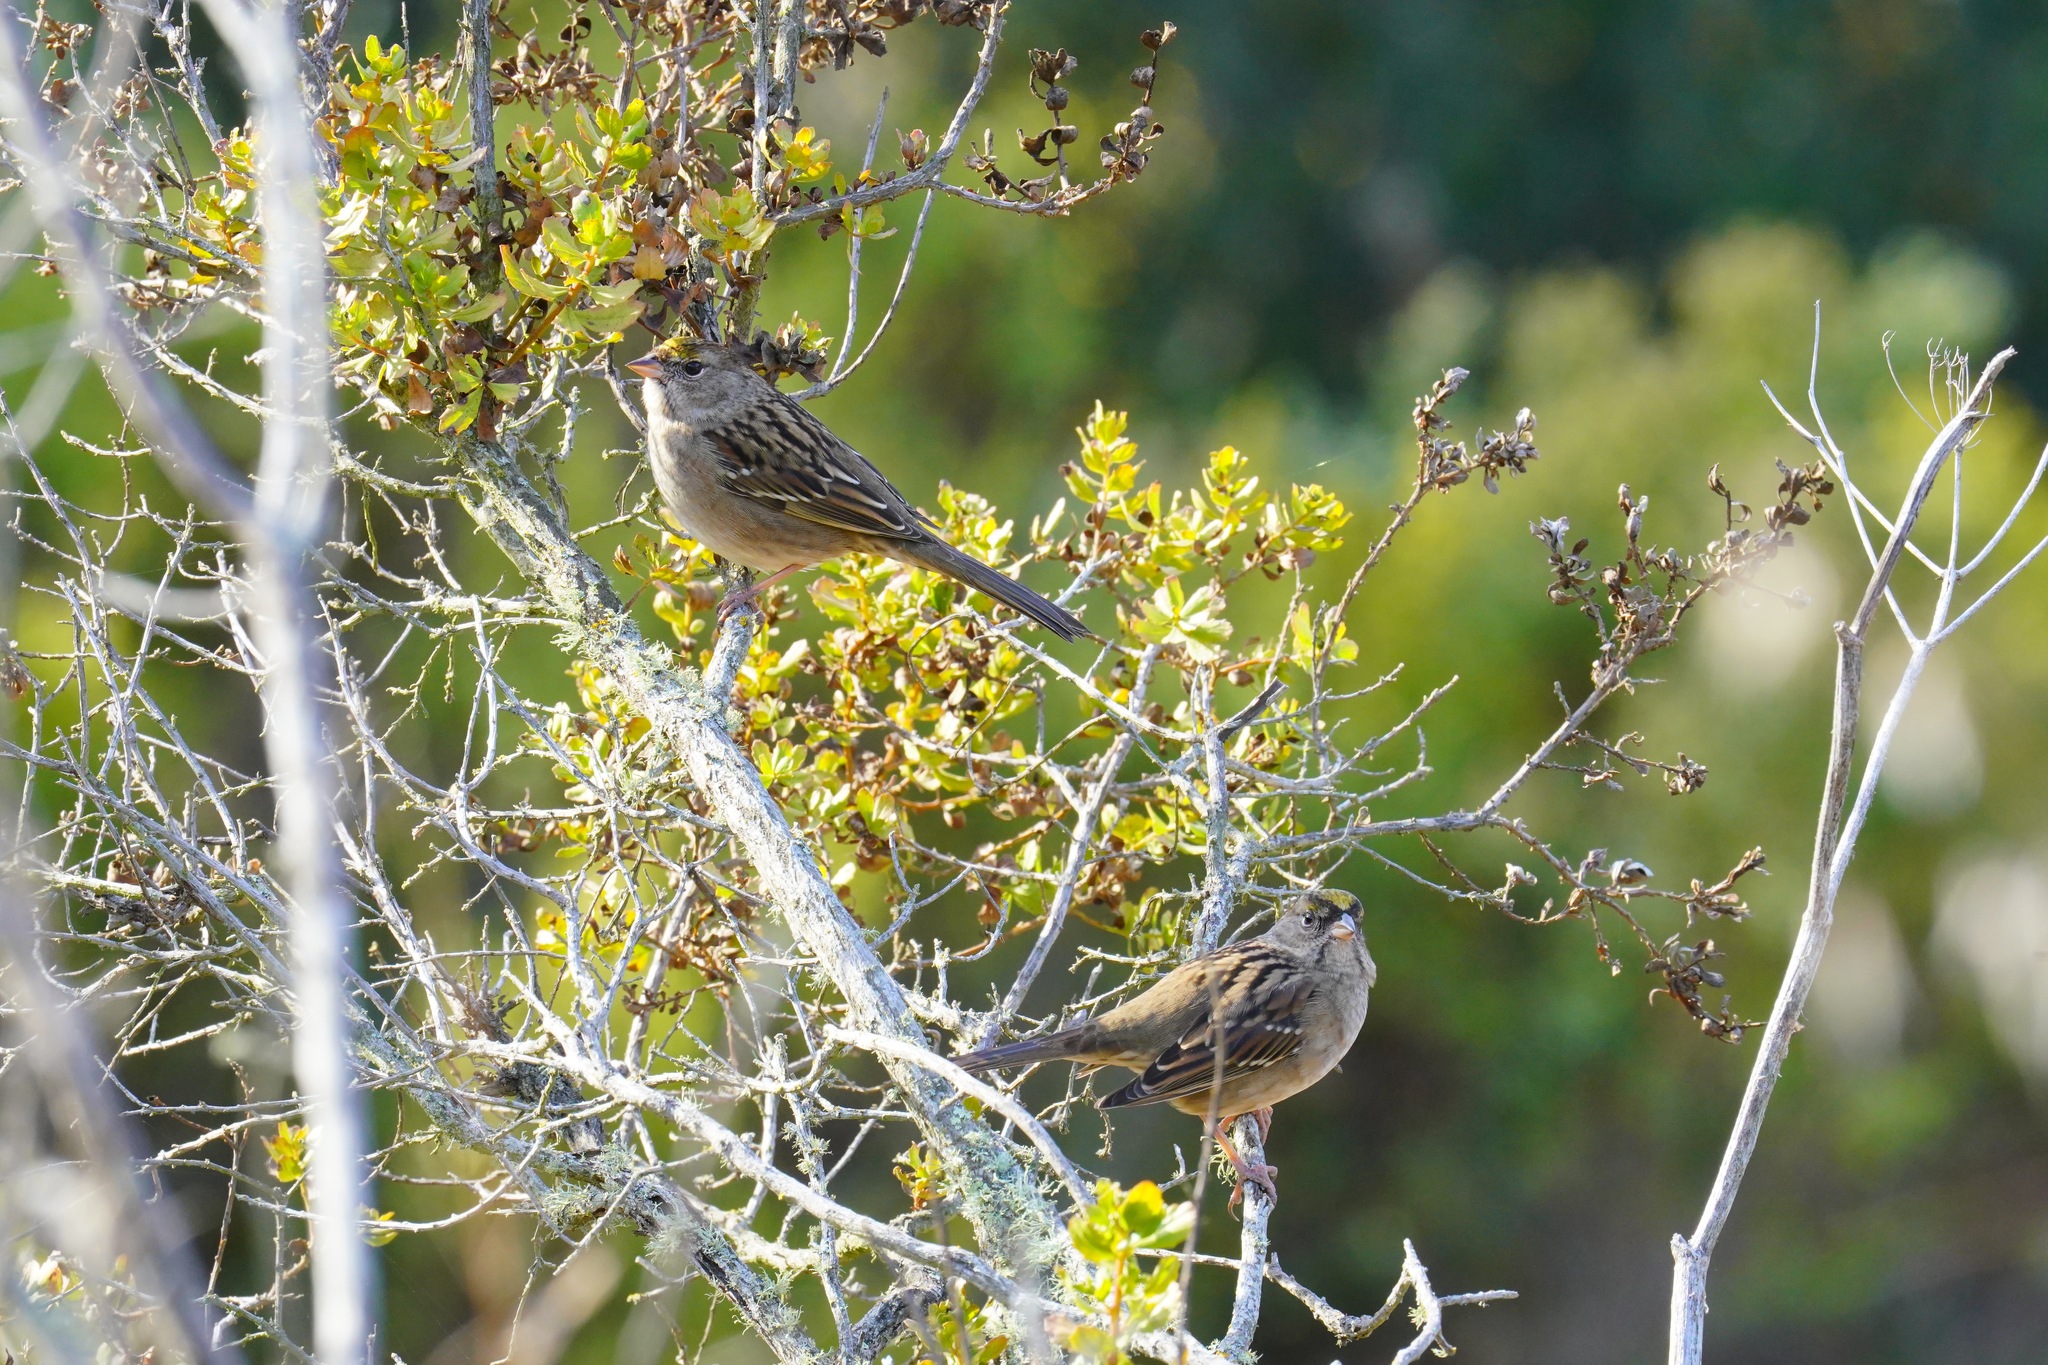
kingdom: Animalia
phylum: Chordata
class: Aves
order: Passeriformes
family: Passerellidae
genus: Zonotrichia
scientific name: Zonotrichia atricapilla
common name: Golden-crowned sparrow
